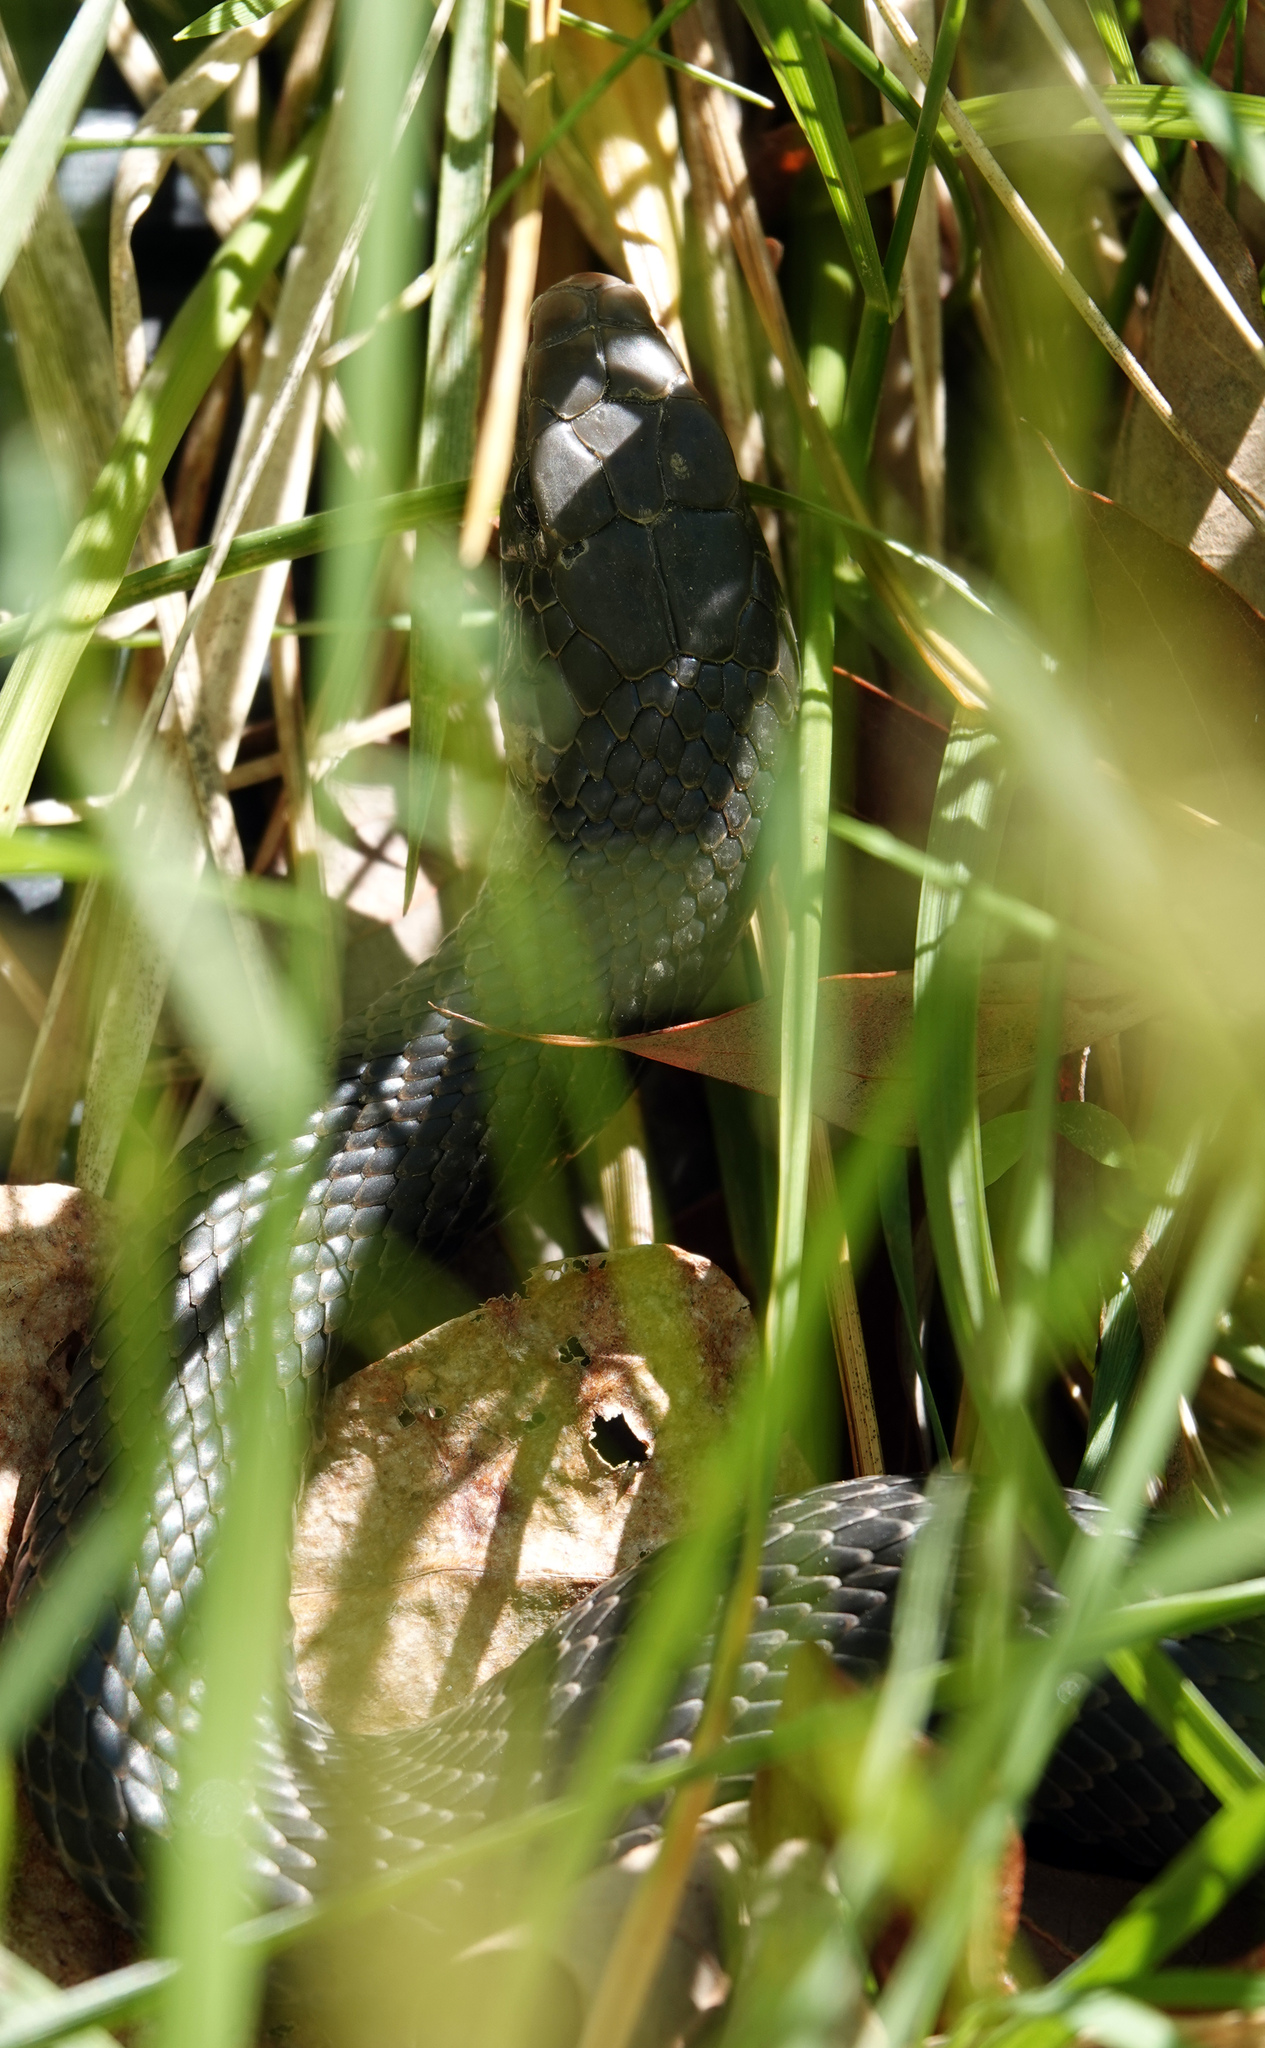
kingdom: Animalia
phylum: Chordata
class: Squamata
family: Colubridae
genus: Coluber
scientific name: Coluber constrictor
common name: Eastern racer
